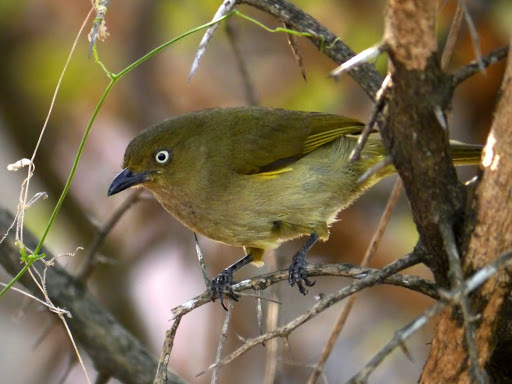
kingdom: Animalia
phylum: Chordata
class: Aves
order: Passeriformes
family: Pycnonotidae
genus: Andropadus
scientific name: Andropadus importunus
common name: Sombre greenbul
